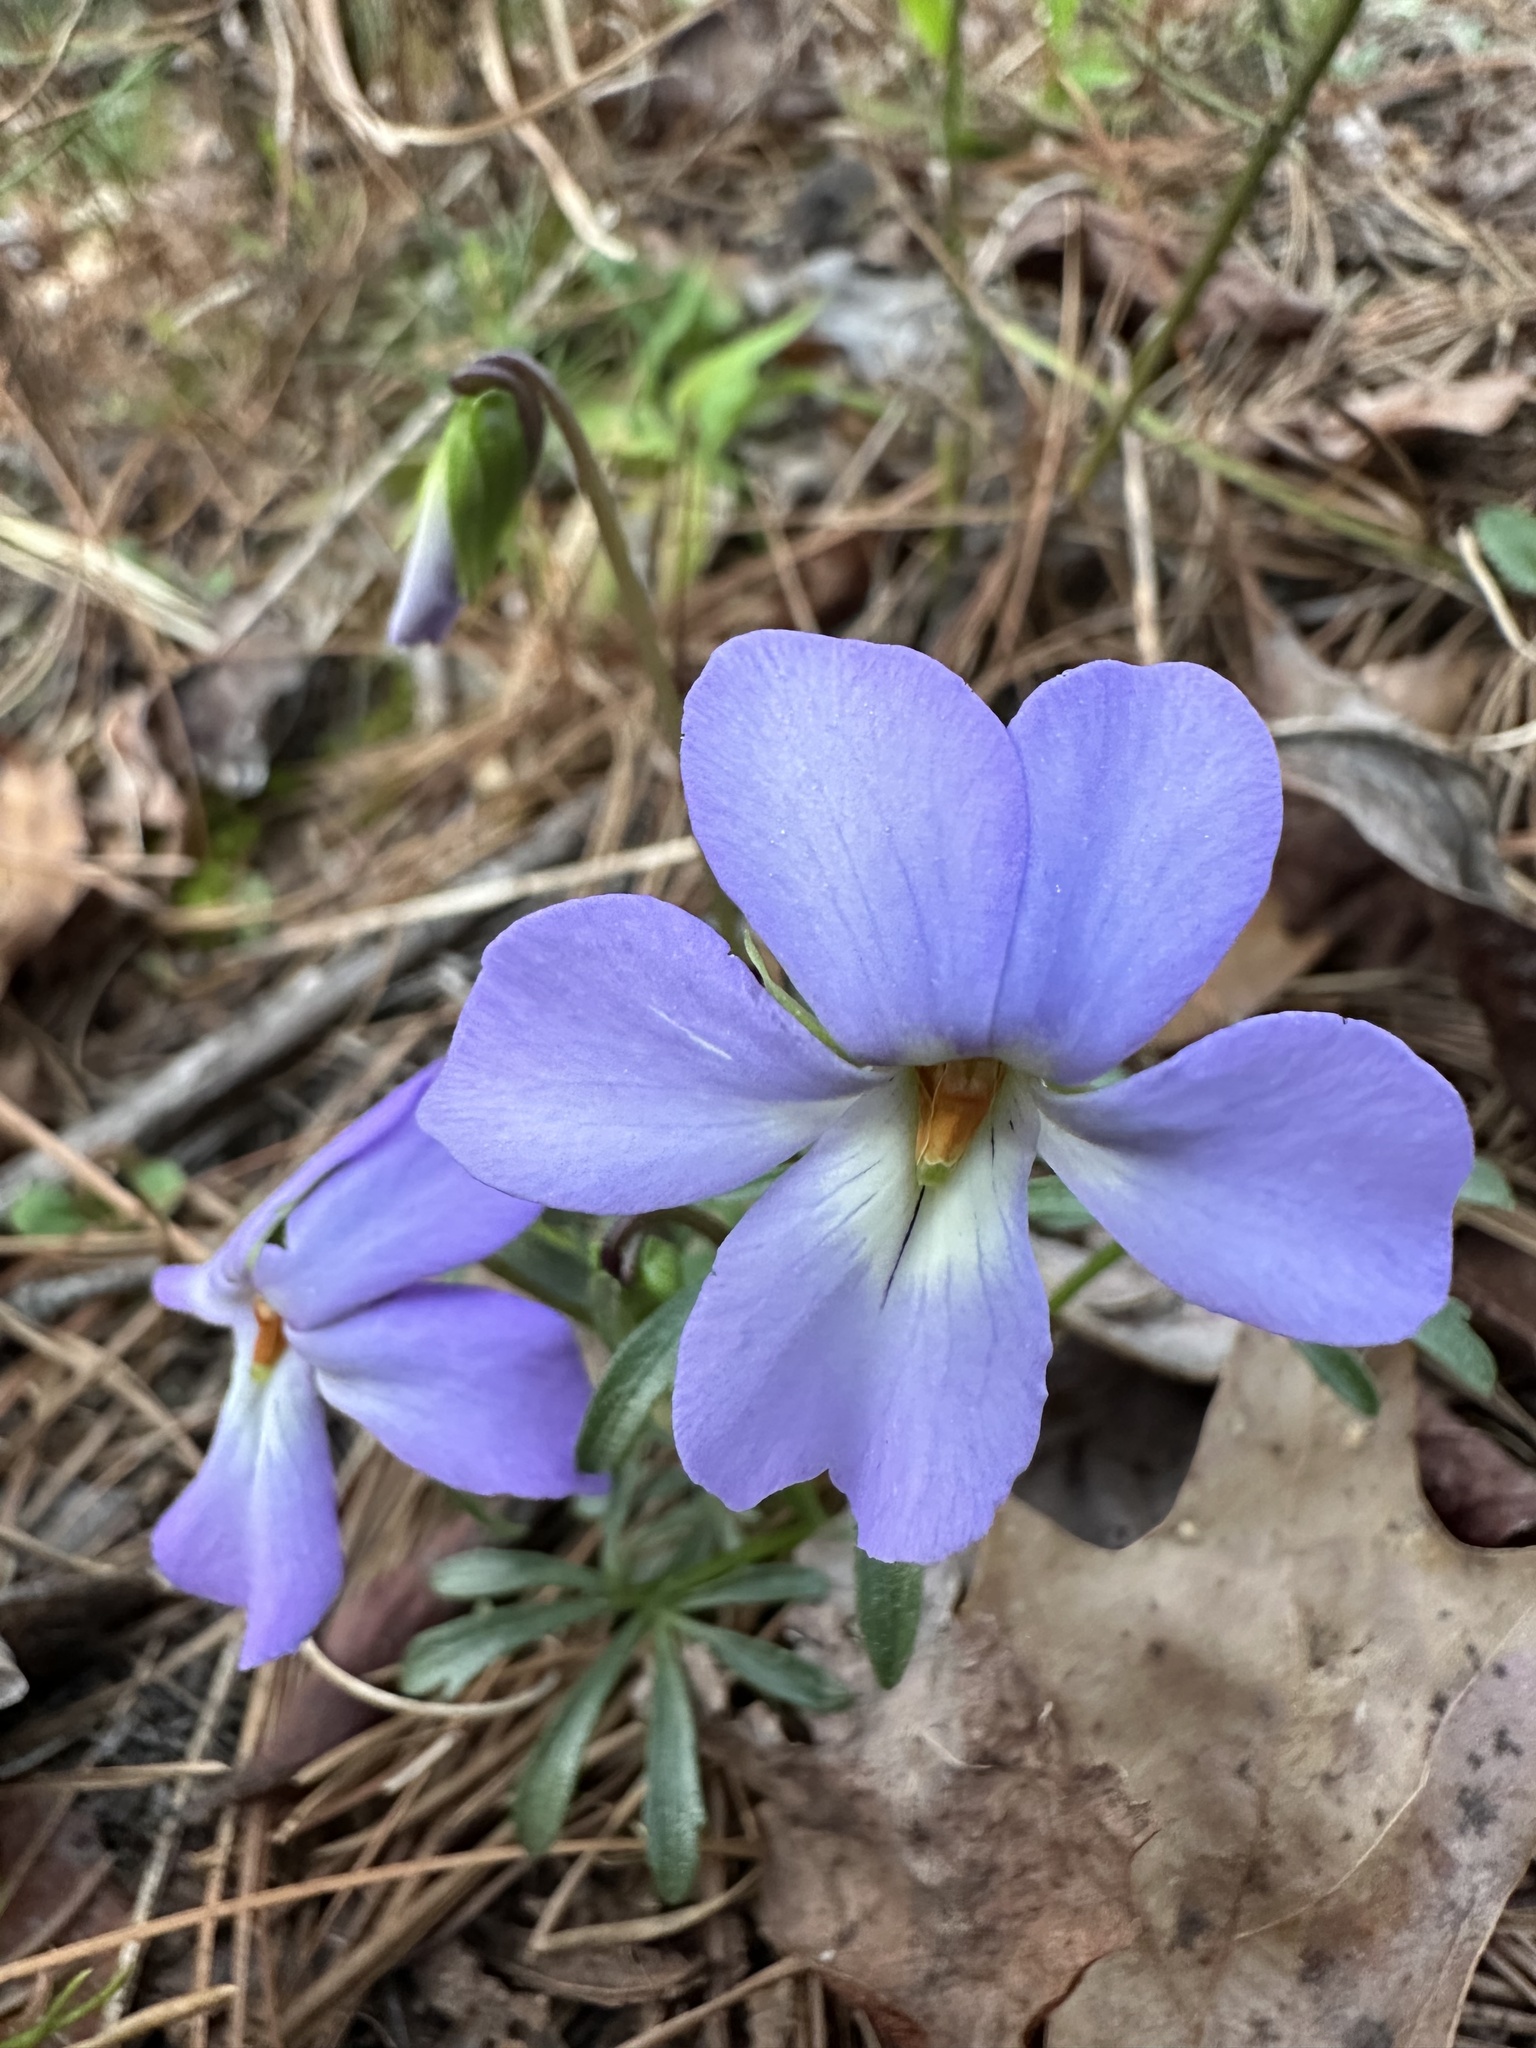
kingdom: Plantae
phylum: Tracheophyta
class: Magnoliopsida
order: Malpighiales
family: Violaceae
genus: Viola
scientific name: Viola pedata
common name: Pansy violet
